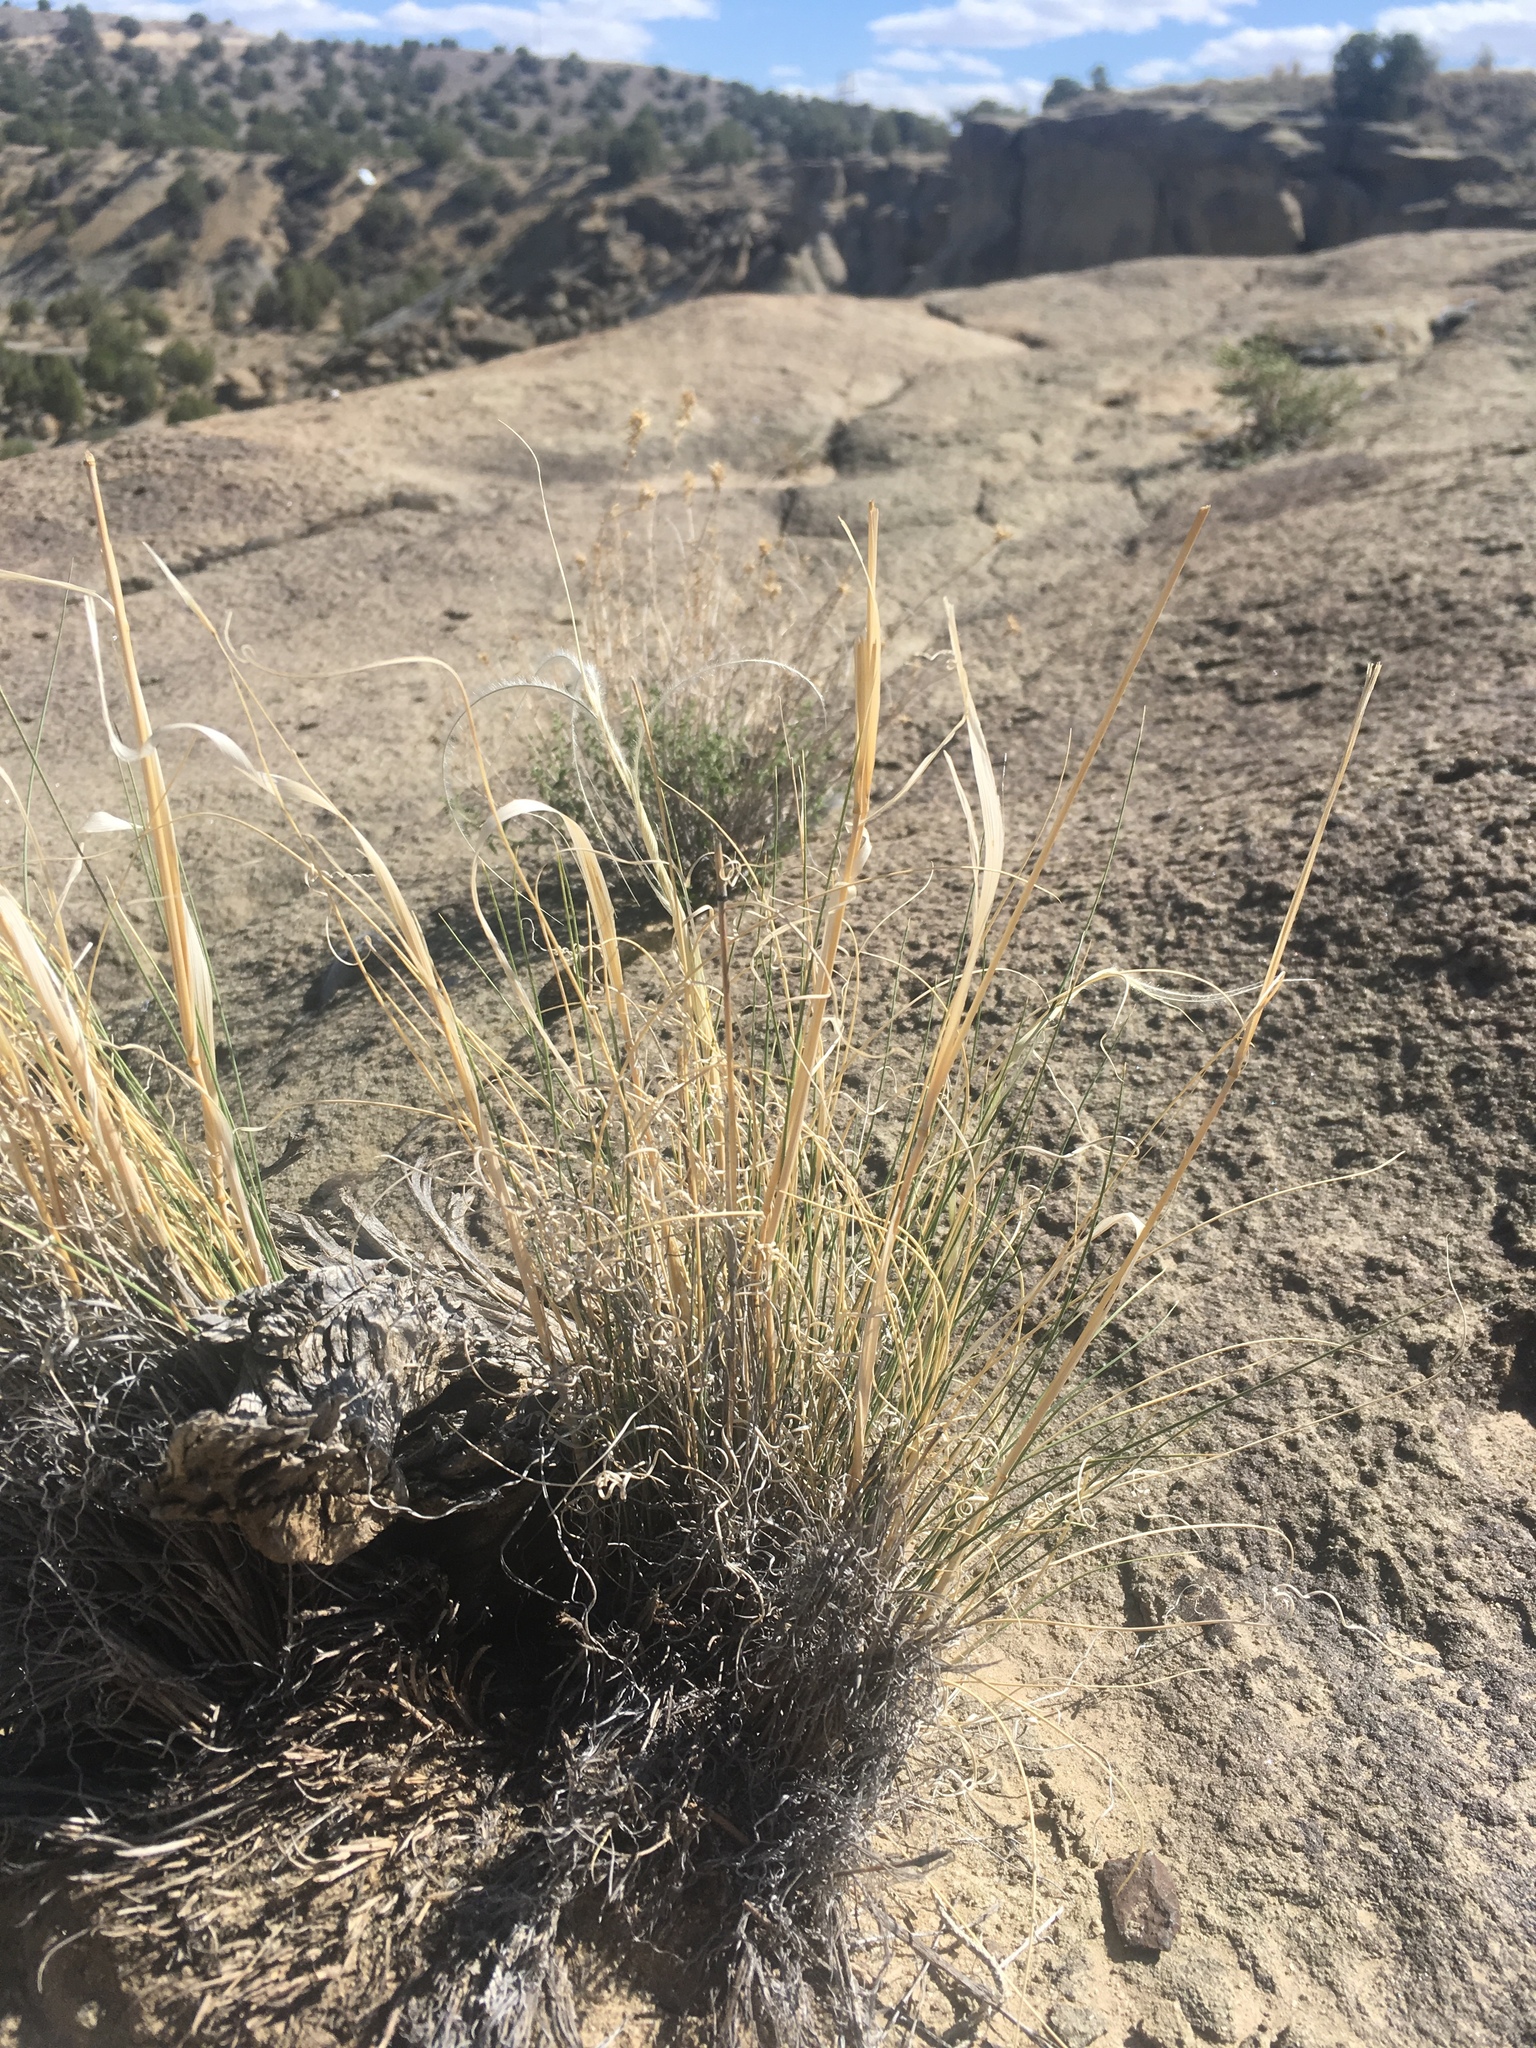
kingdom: Plantae
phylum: Tracheophyta
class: Liliopsida
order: Poales
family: Poaceae
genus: Hesperostipa
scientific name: Hesperostipa neomexicana
